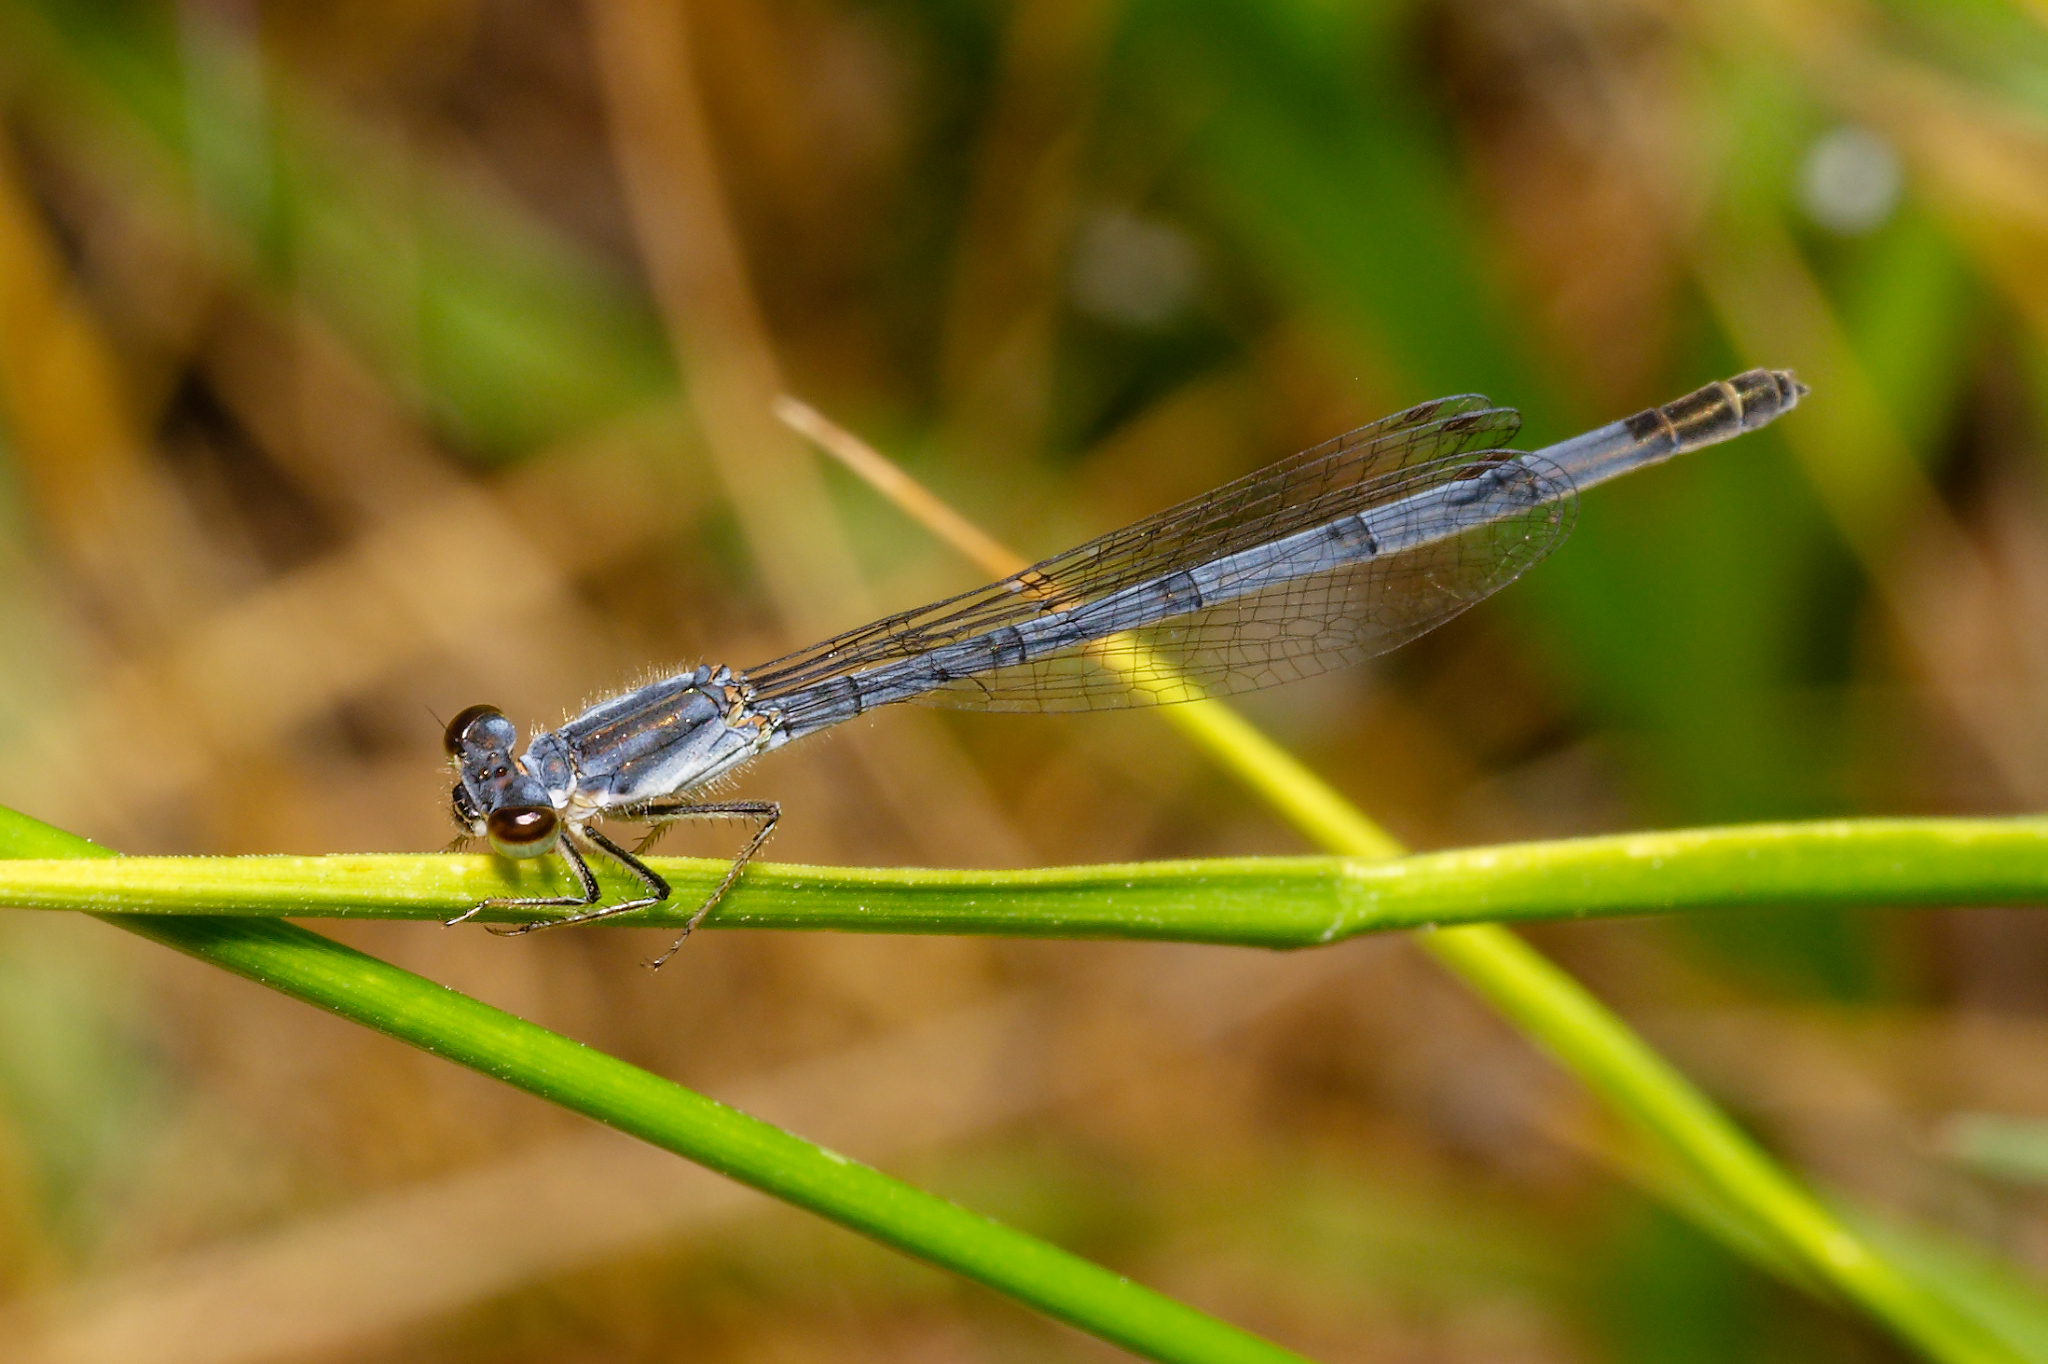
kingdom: Animalia
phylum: Arthropoda
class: Insecta
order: Odonata
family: Coenagrionidae
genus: Ischnura
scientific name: Ischnura posita
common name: Fragile forktail
